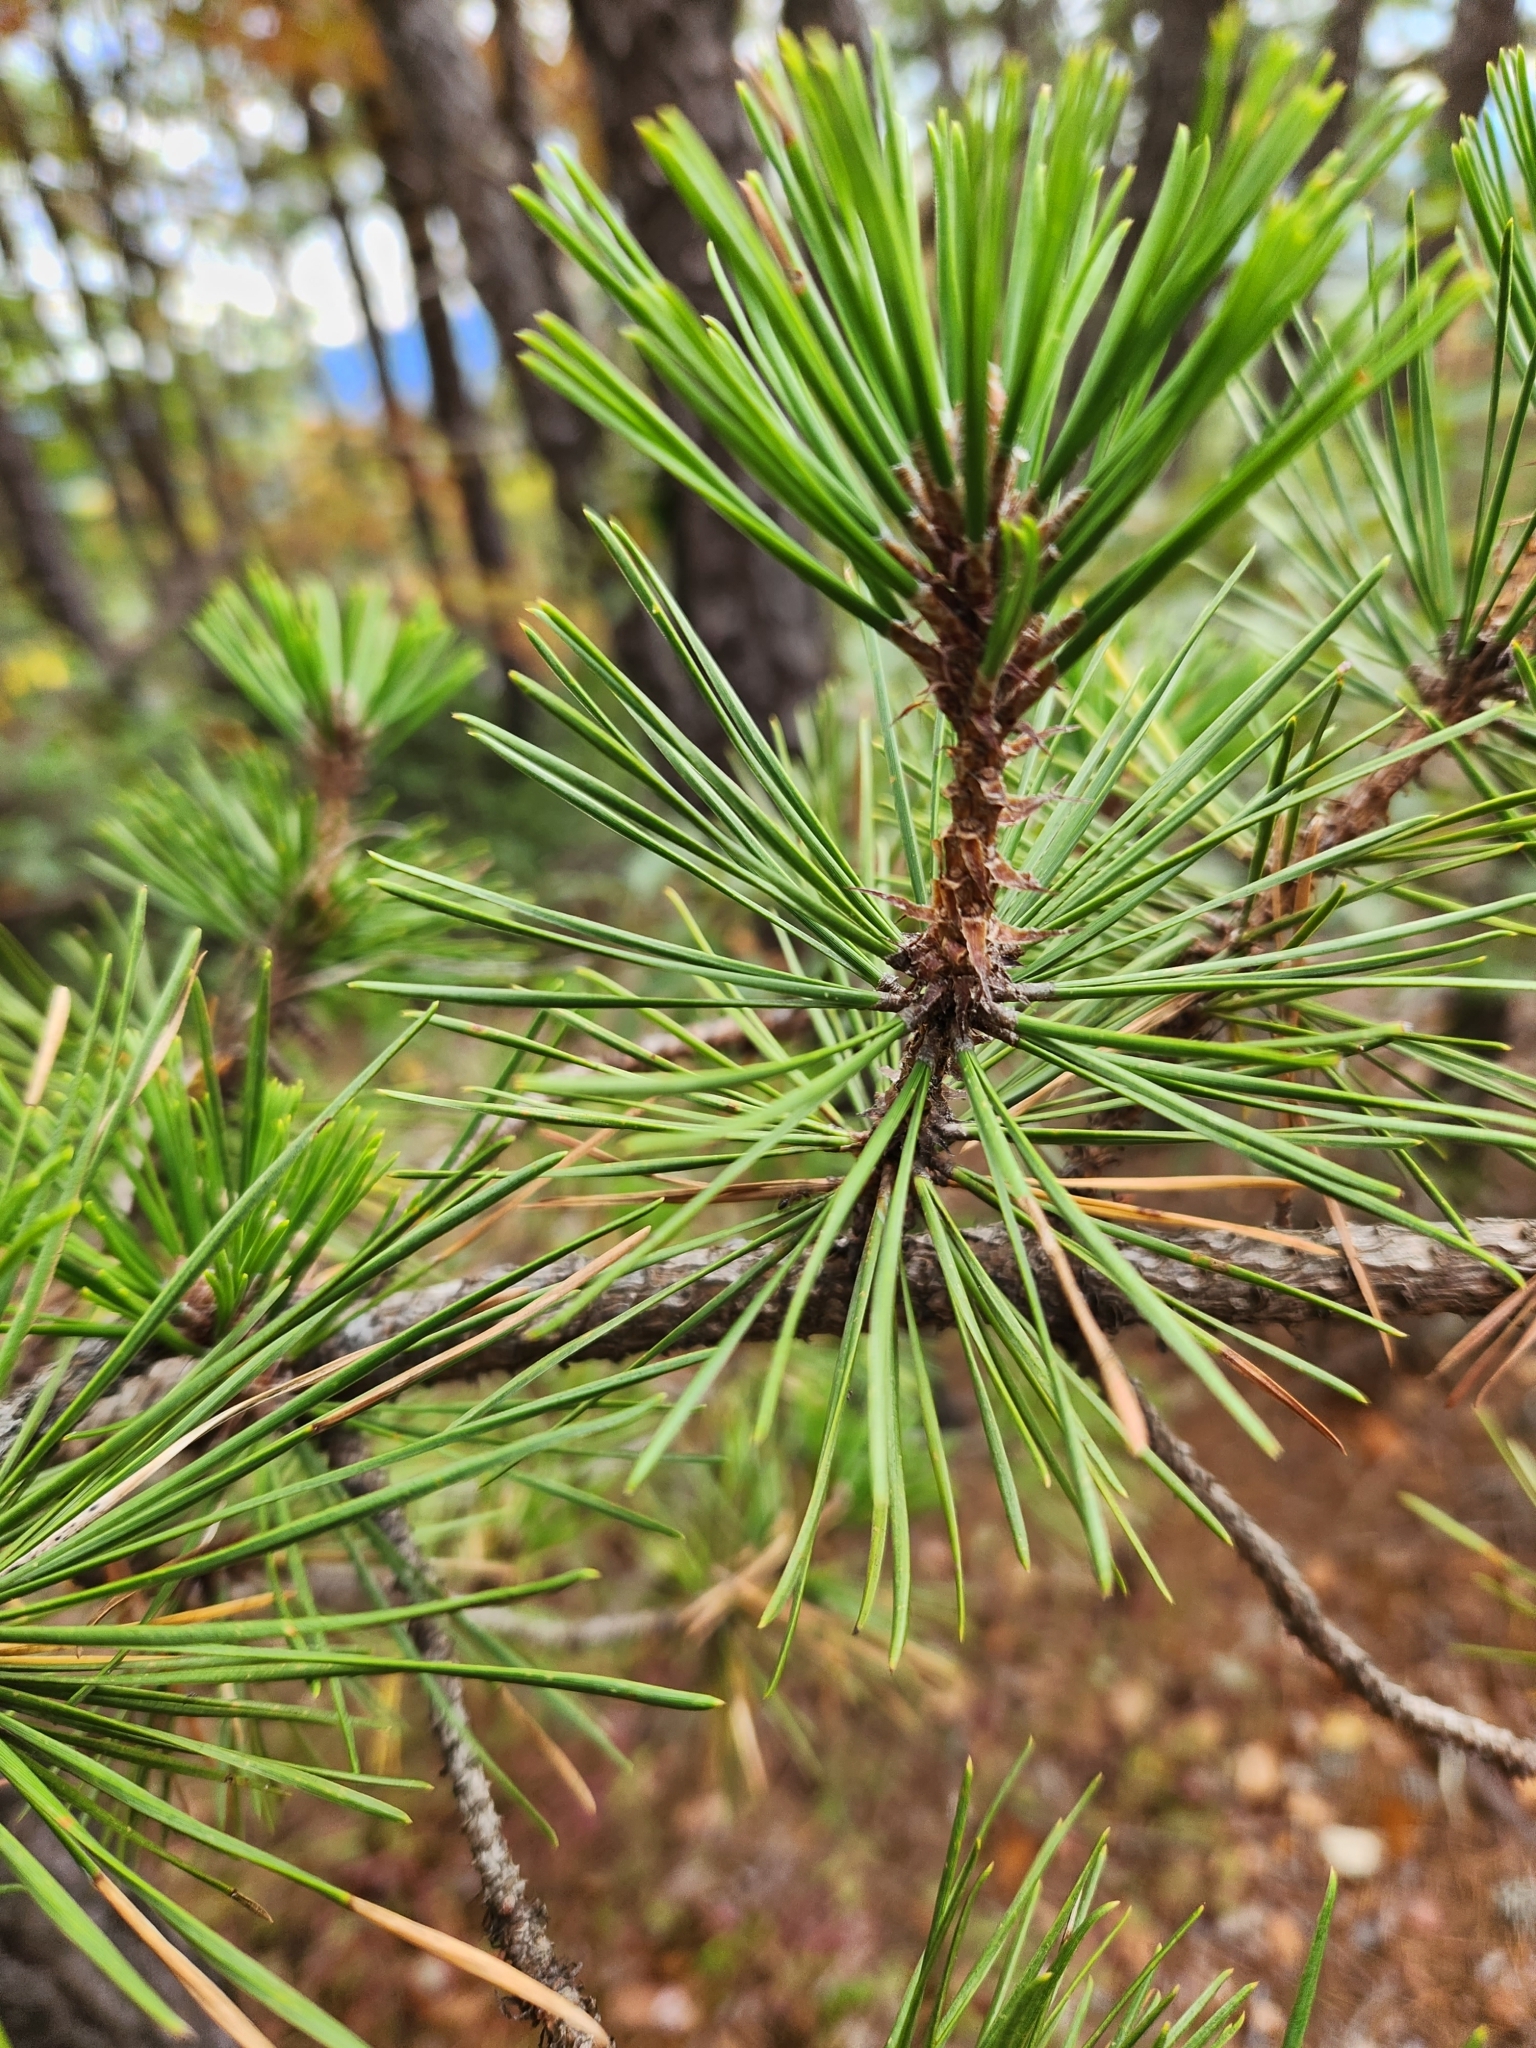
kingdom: Plantae
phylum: Tracheophyta
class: Pinopsida
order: Pinales
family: Pinaceae
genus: Pinus
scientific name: Pinus pungens
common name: Hickory pine
